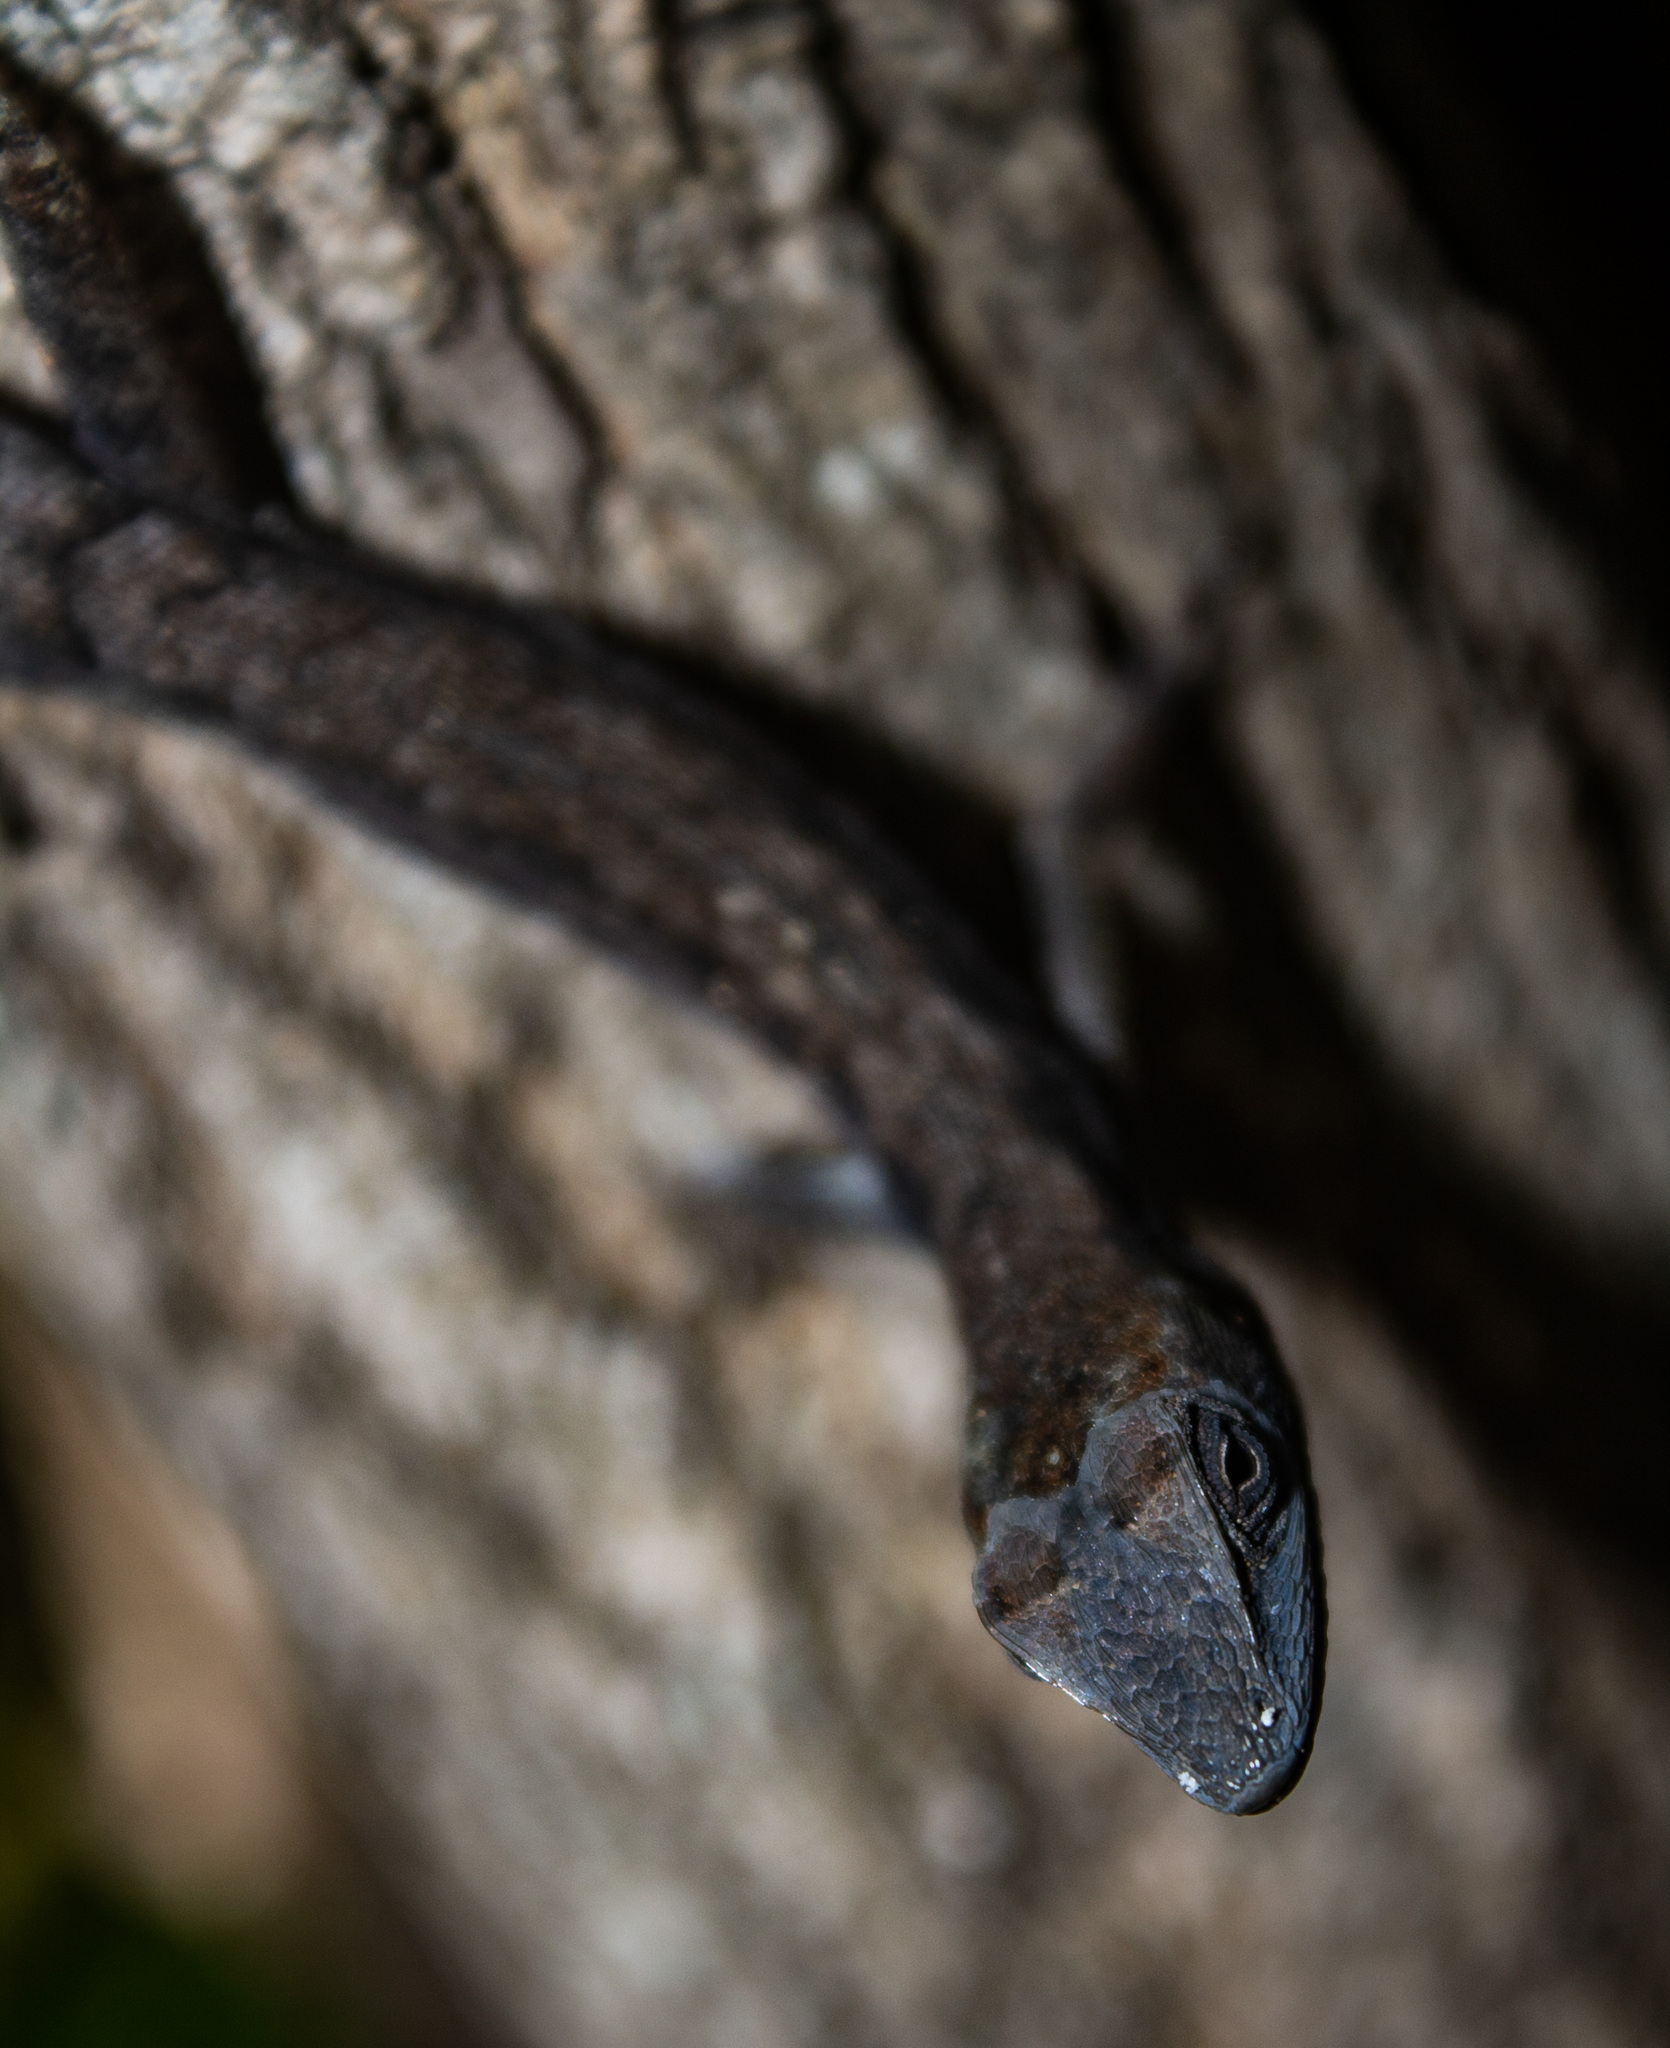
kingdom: Animalia
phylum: Chordata
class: Squamata
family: Dactyloidae
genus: Anolis
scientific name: Anolis auratus
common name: Grass anole
